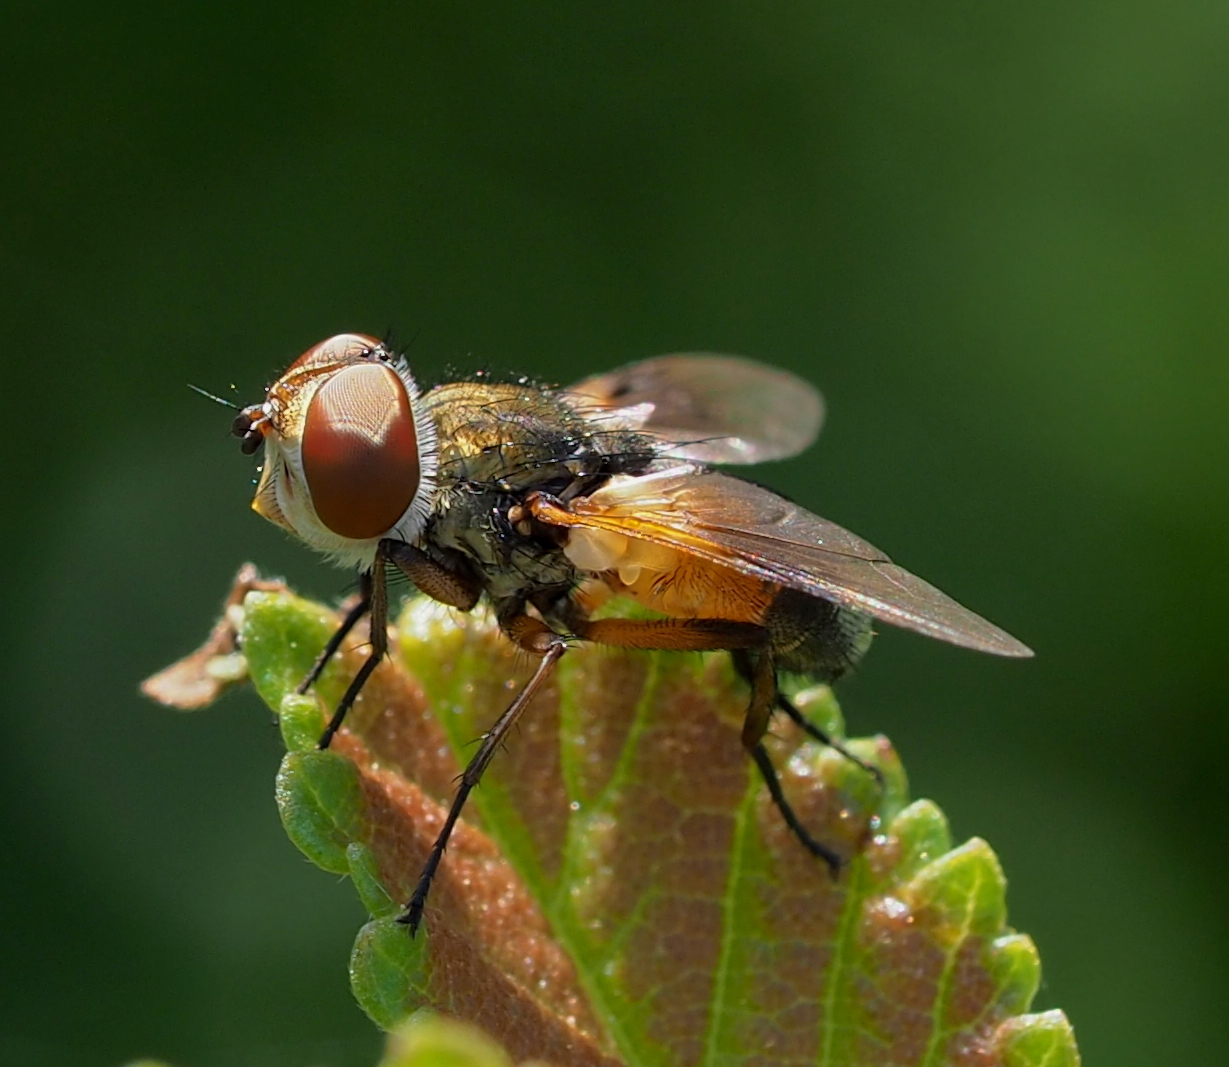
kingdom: Animalia
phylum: Arthropoda
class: Insecta
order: Diptera
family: Tachinidae
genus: Ectophasia
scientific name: Ectophasia
